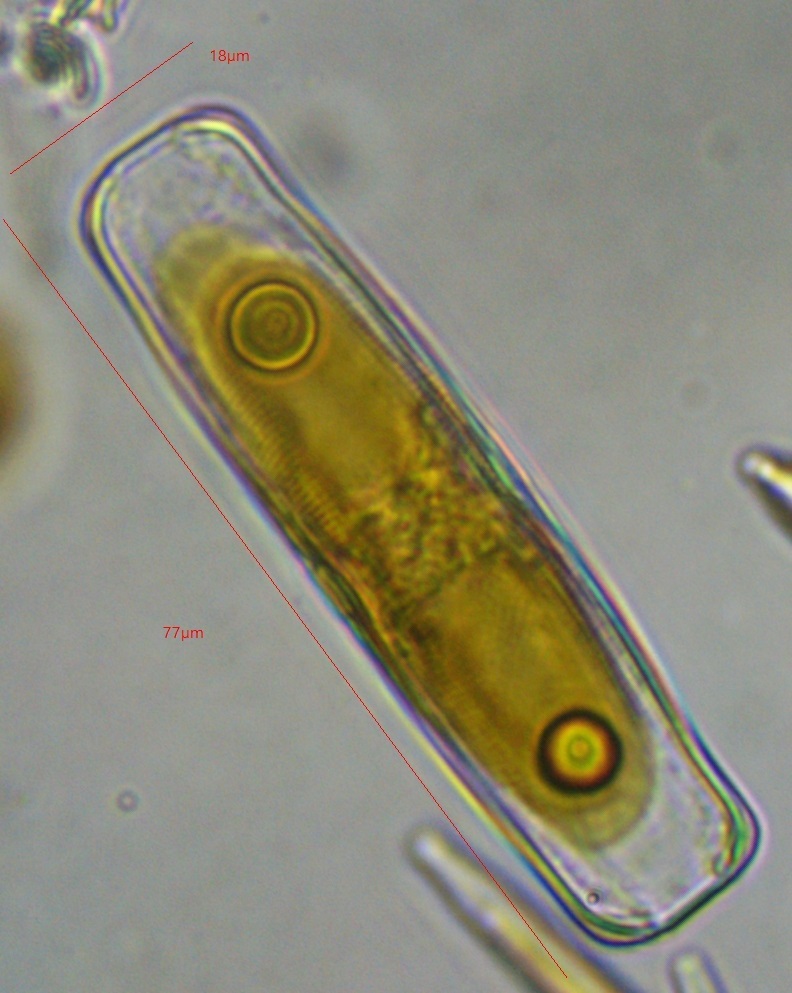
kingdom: Chromista
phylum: Ochrophyta
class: Bacillariophyceae
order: Naviculales
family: Naviculaceae
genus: Caloneis
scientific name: Caloneis amphisbaena
